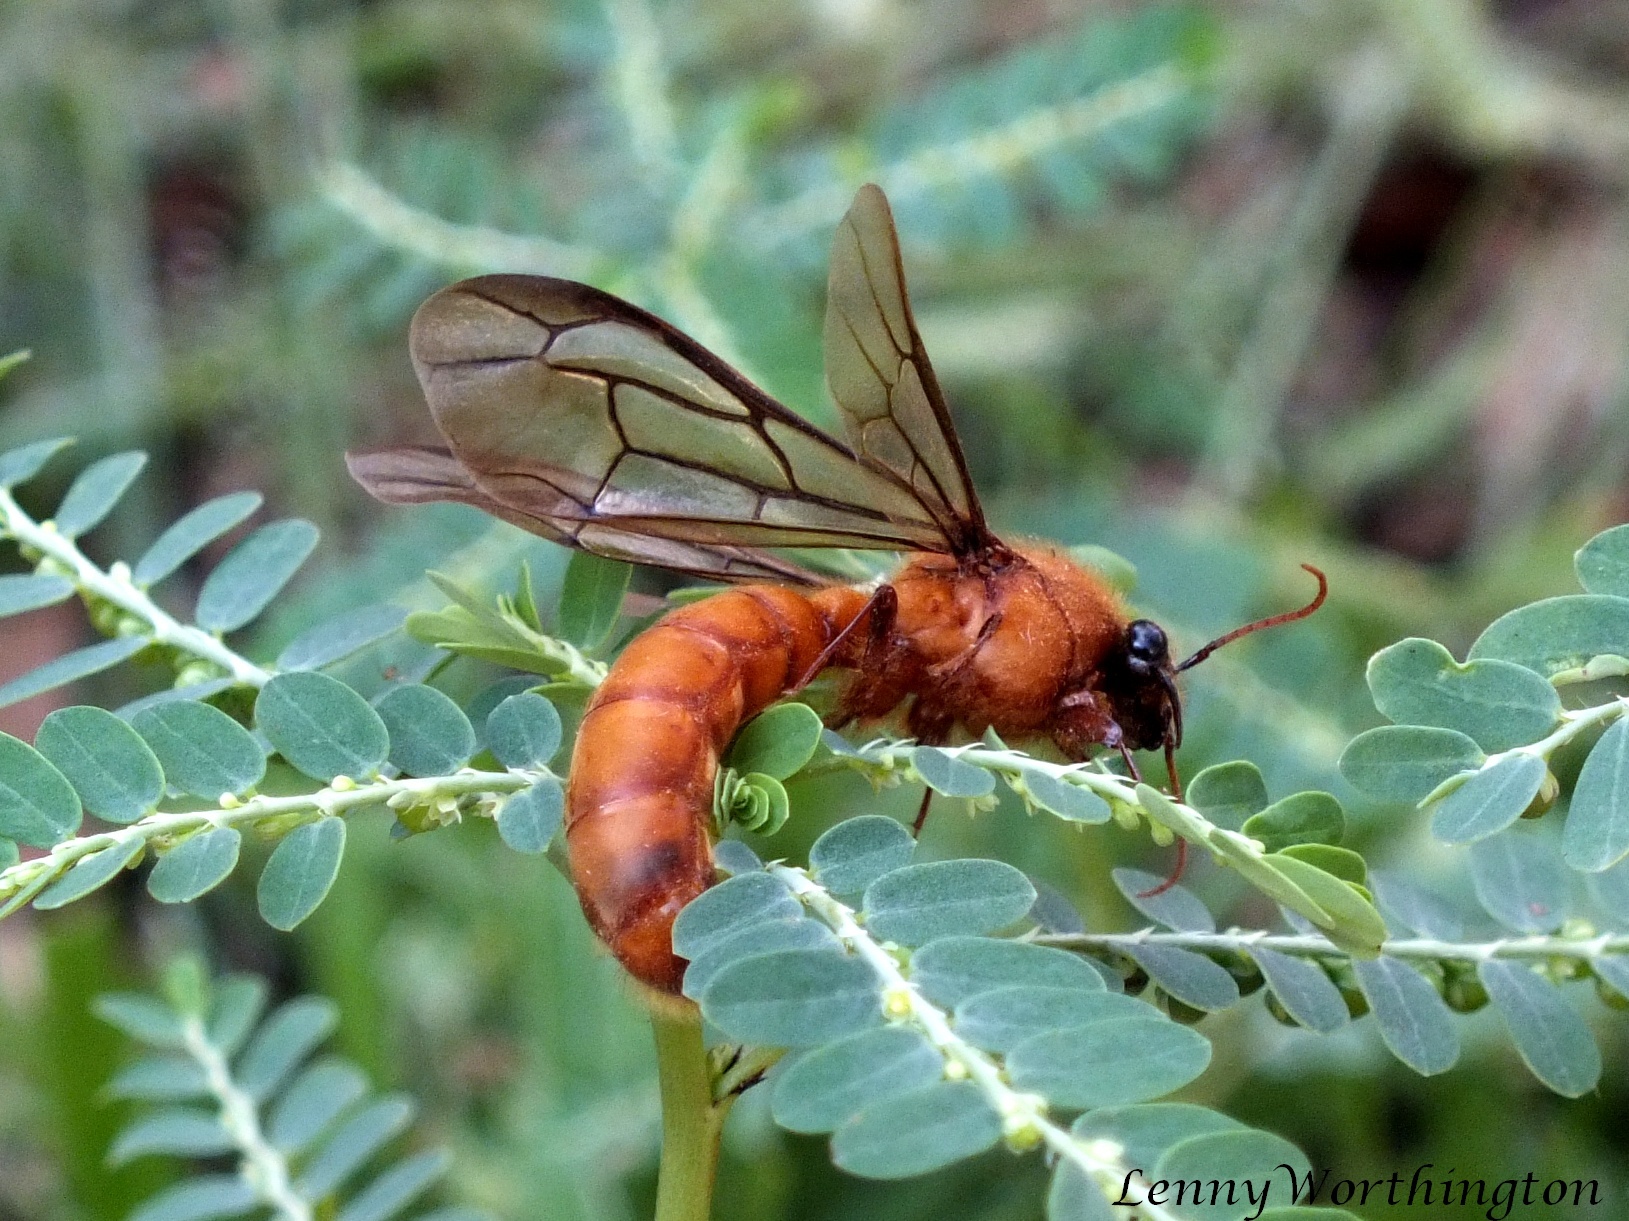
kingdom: Animalia
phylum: Arthropoda
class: Insecta
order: Hymenoptera
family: Formicidae
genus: Dorylus
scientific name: Dorylus laevigatus
